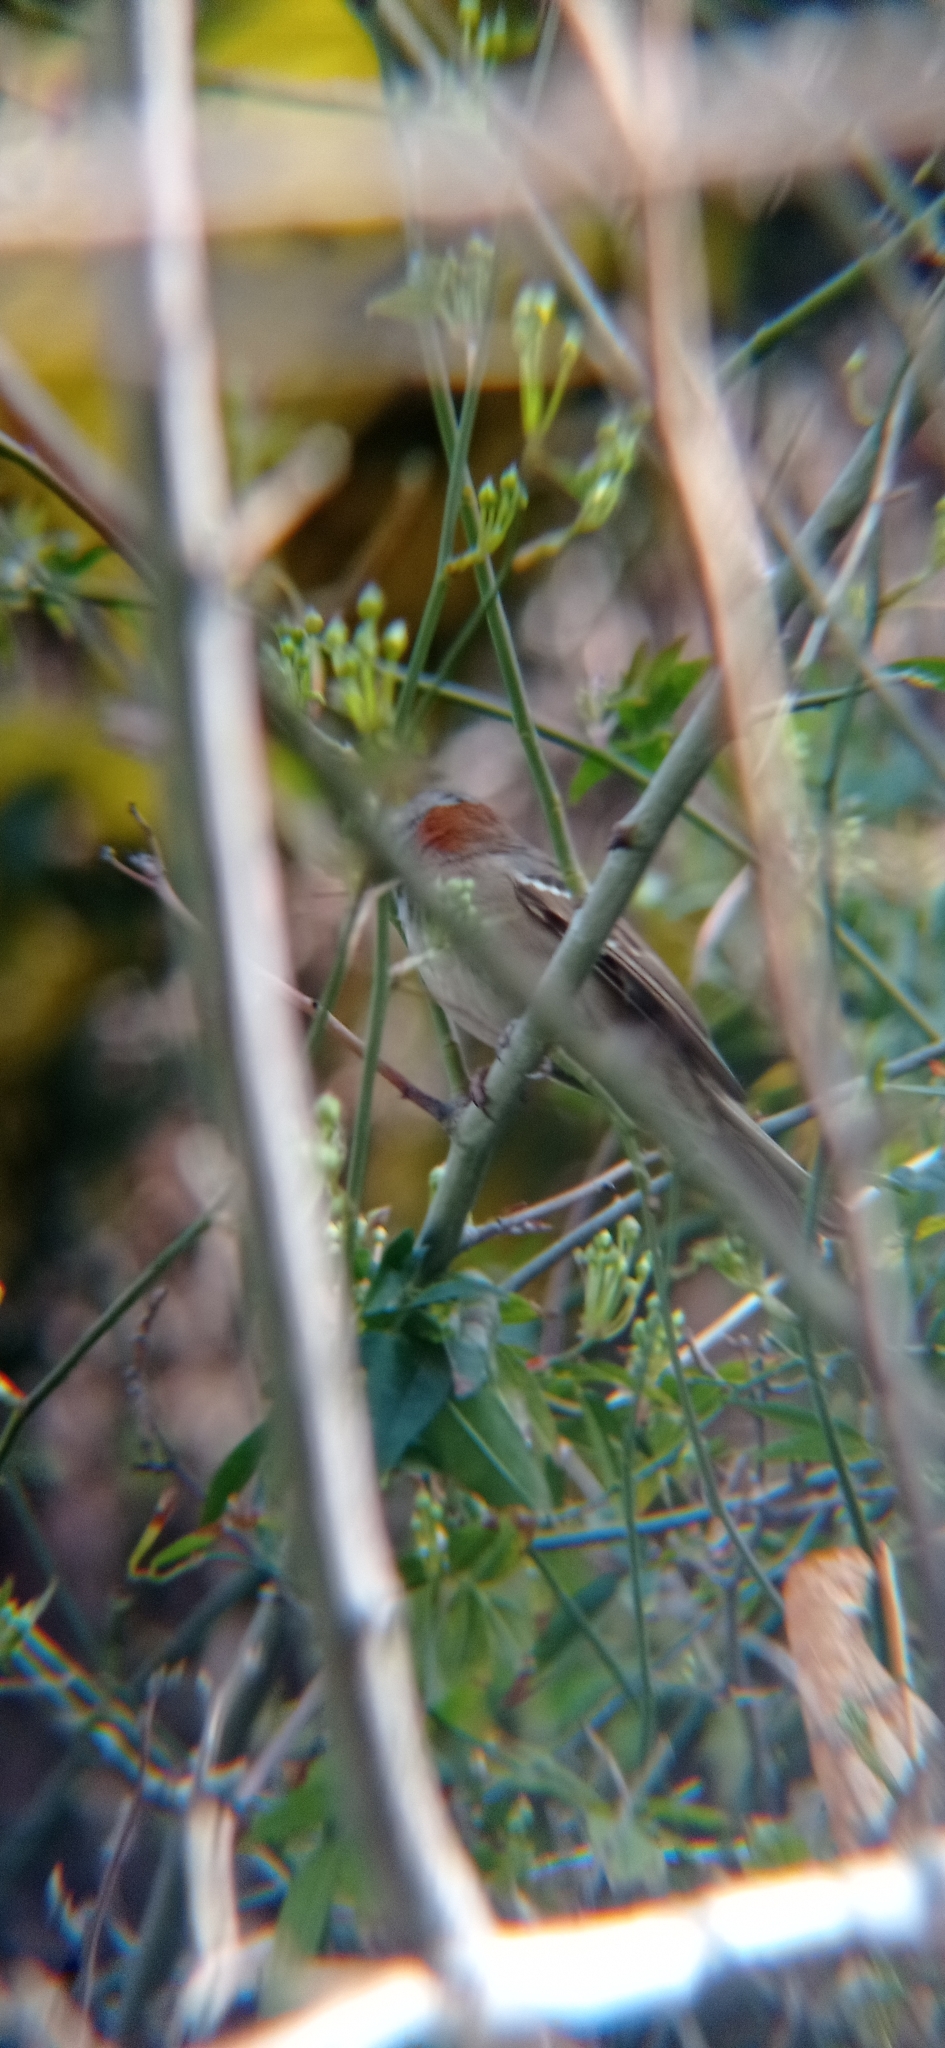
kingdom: Animalia
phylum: Chordata
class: Aves
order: Passeriformes
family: Passerellidae
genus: Zonotrichia
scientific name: Zonotrichia capensis
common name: Rufous-collared sparrow
